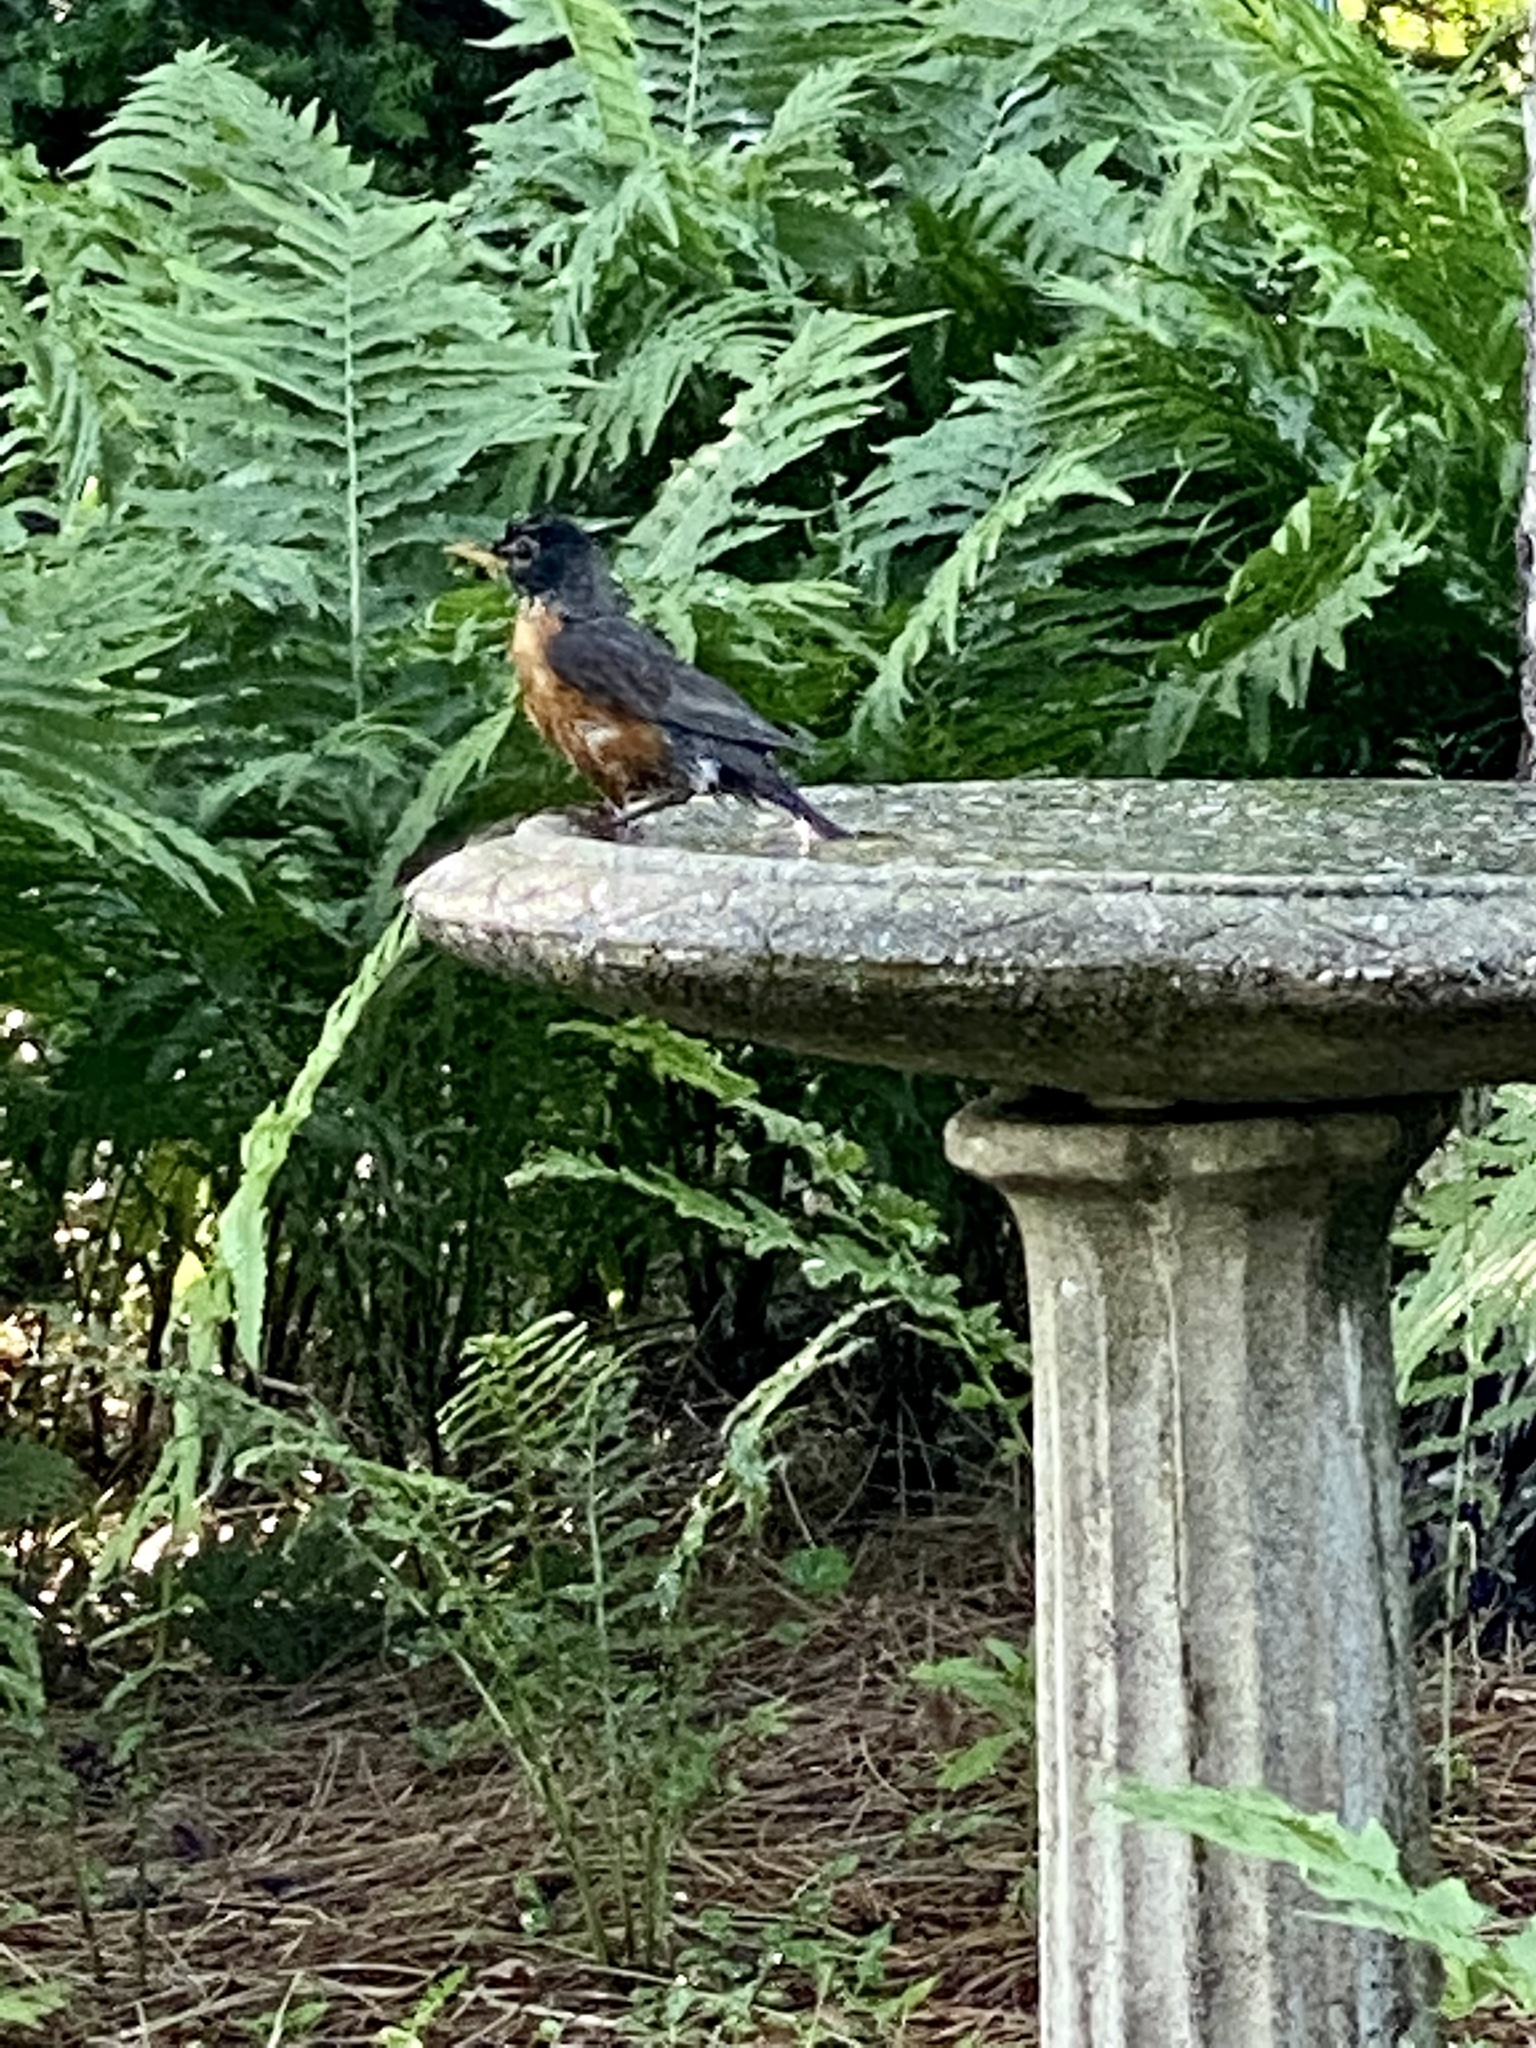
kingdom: Animalia
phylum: Chordata
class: Aves
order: Passeriformes
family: Turdidae
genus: Turdus
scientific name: Turdus migratorius
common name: American robin
